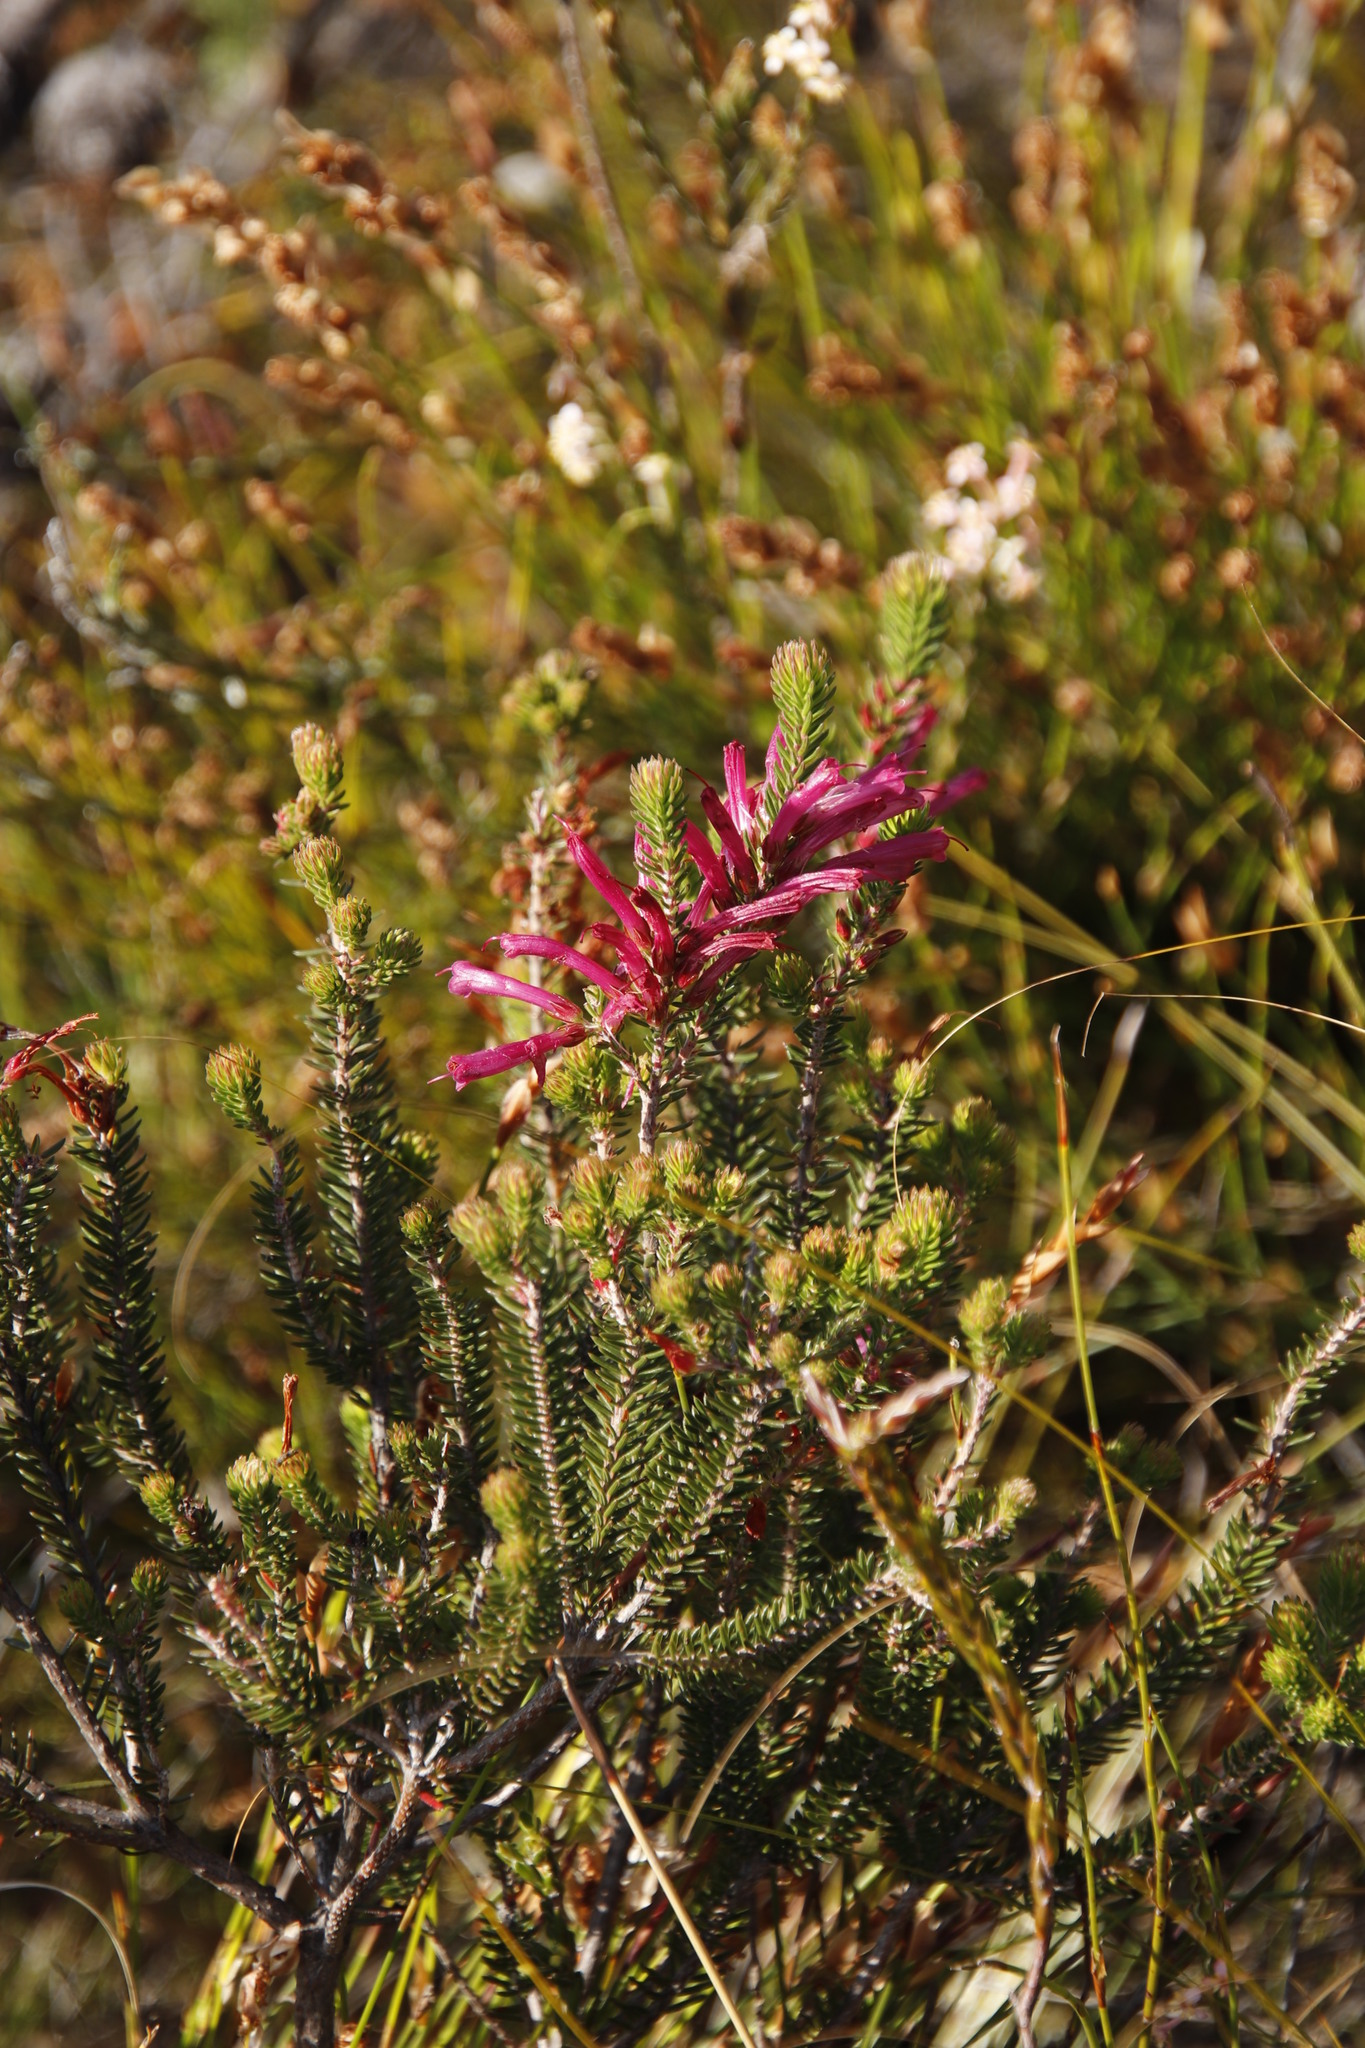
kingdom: Plantae
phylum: Tracheophyta
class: Magnoliopsida
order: Ericales
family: Ericaceae
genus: Erica
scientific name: Erica abietina
